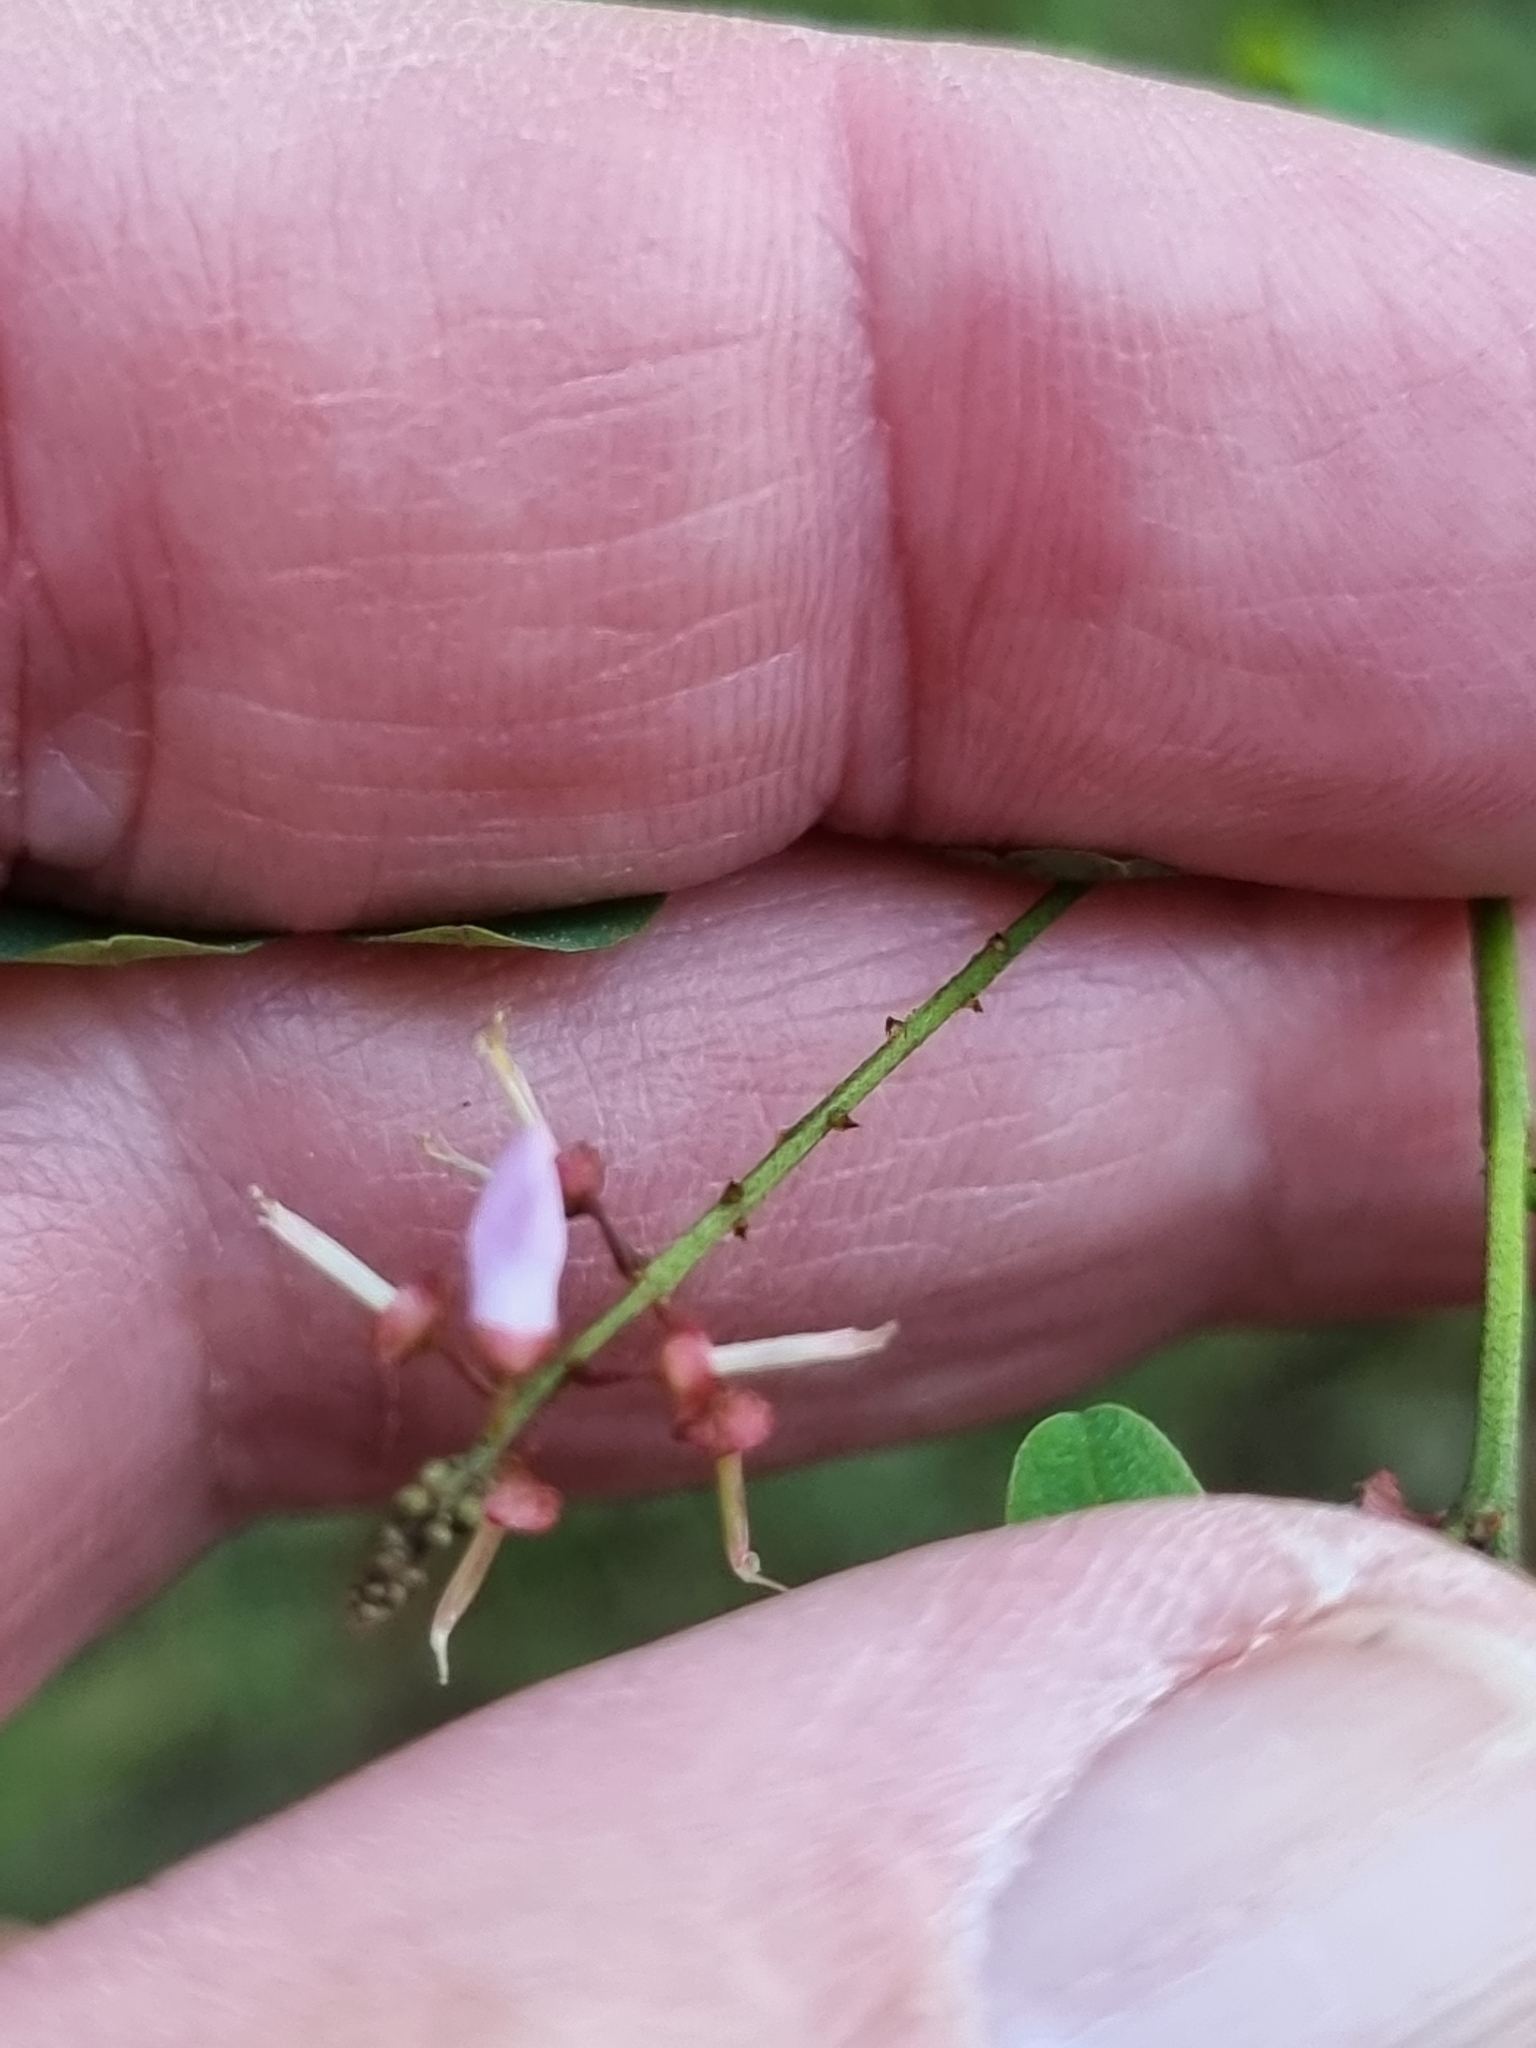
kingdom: Plantae
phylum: Tracheophyta
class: Magnoliopsida
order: Fabales
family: Fabaceae
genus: Indigofera
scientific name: Indigofera australis
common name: Australian indigo
